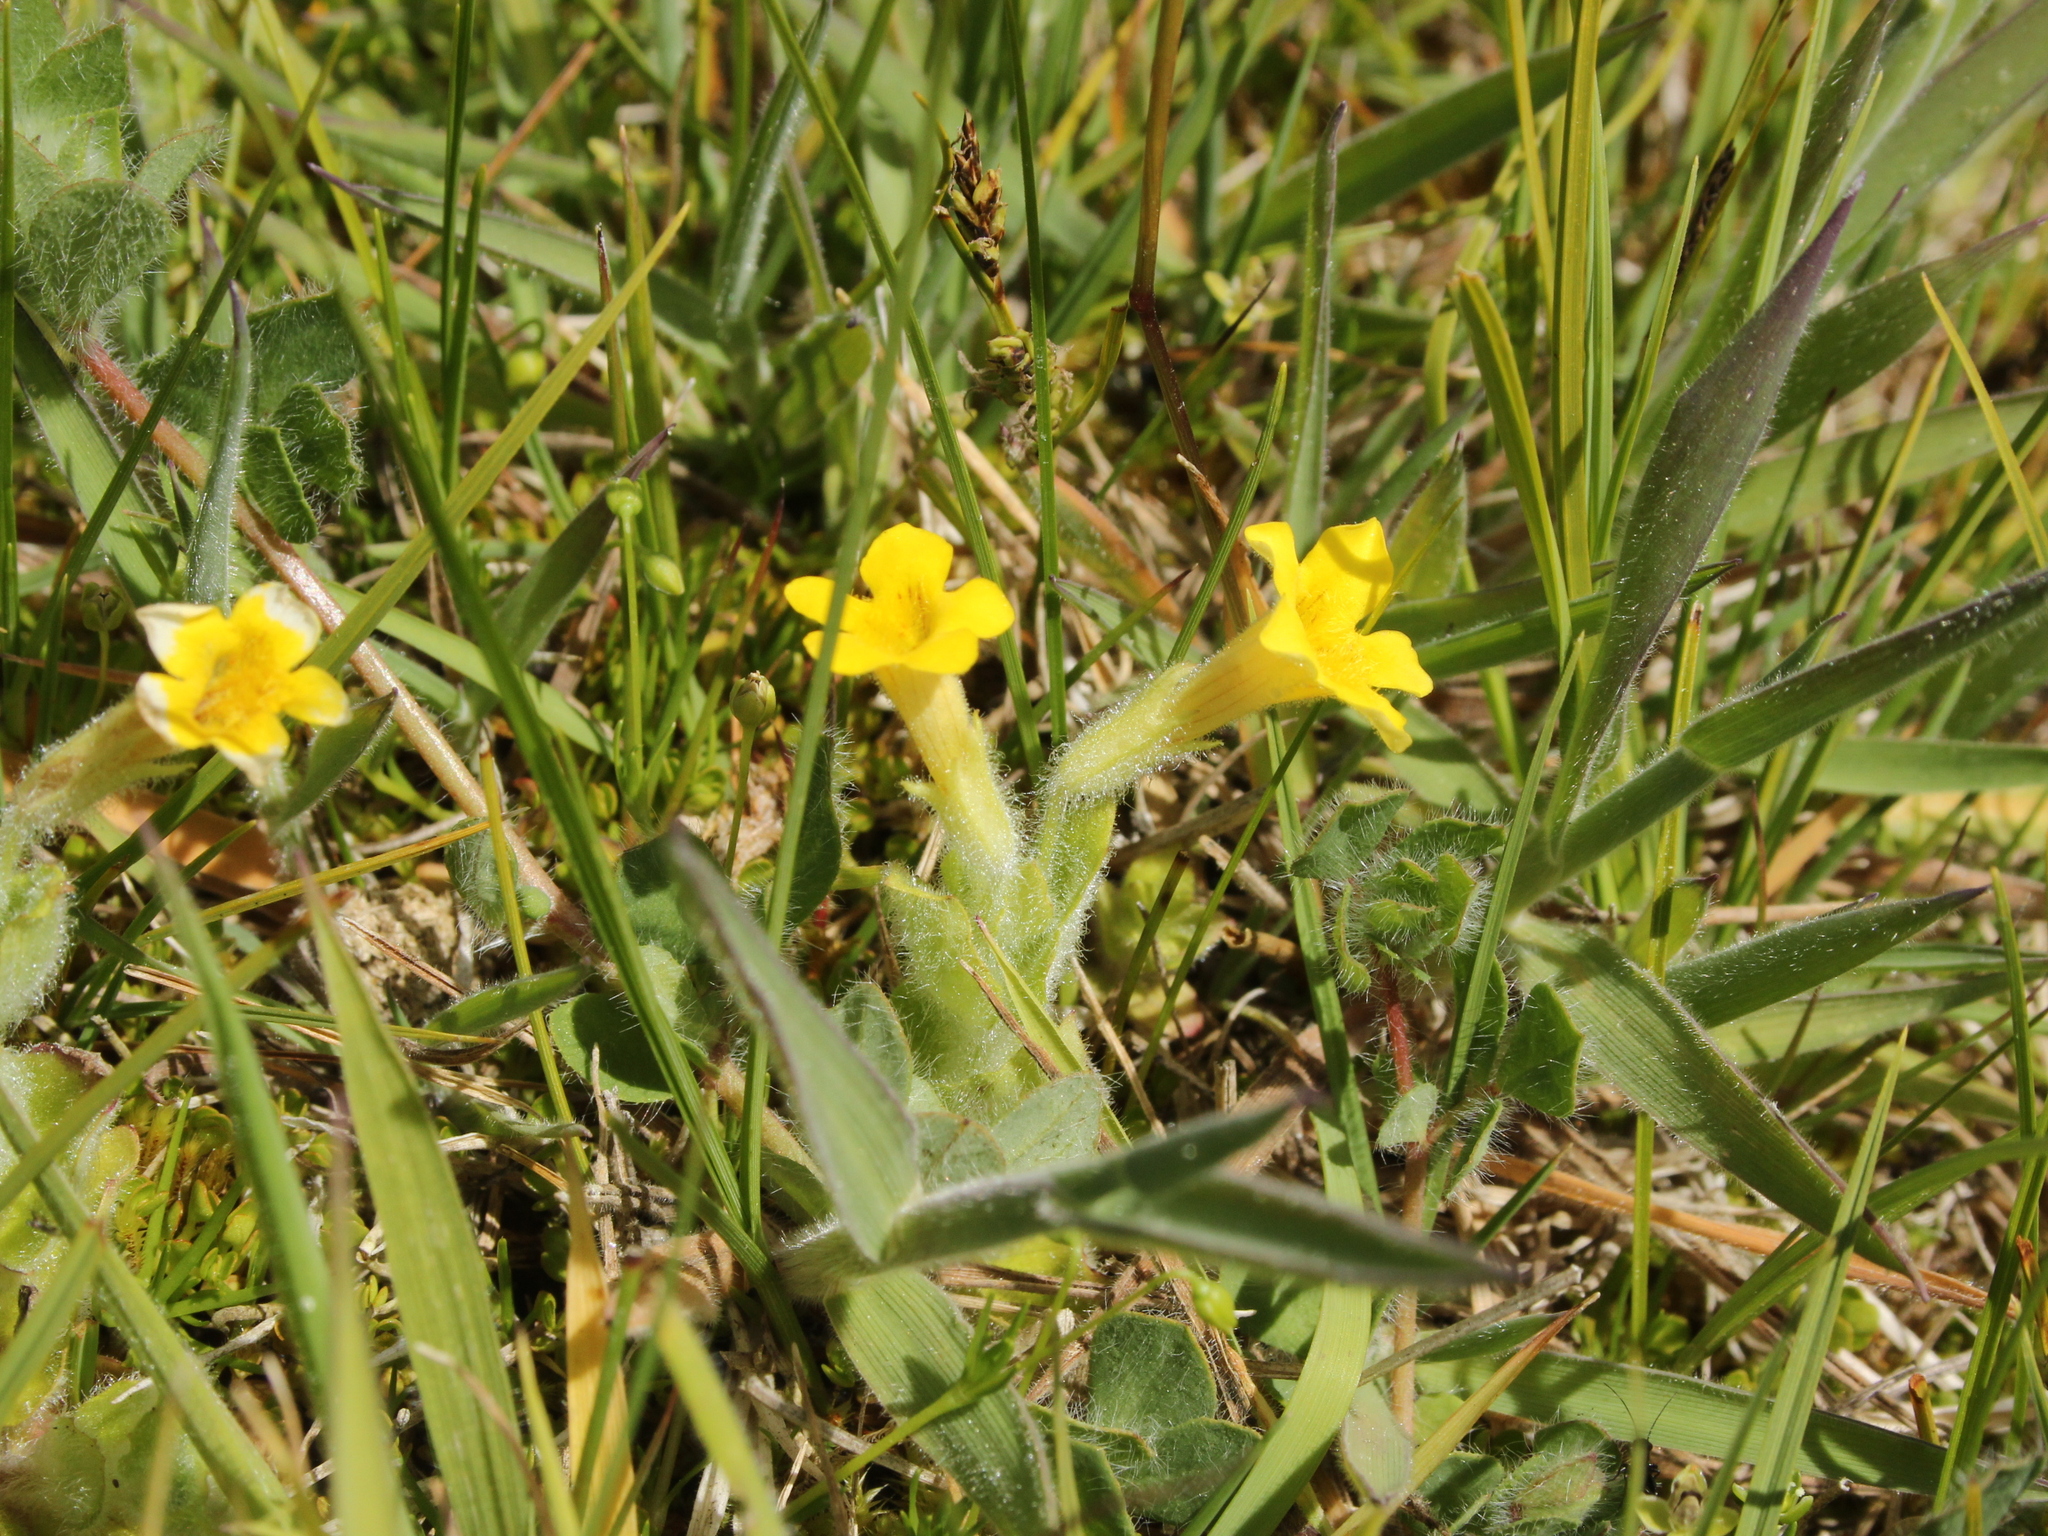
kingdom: Plantae
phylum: Tracheophyta
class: Magnoliopsida
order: Lamiales
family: Phrymaceae
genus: Erythranthe
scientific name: Erythranthe moschata
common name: Muskflower
